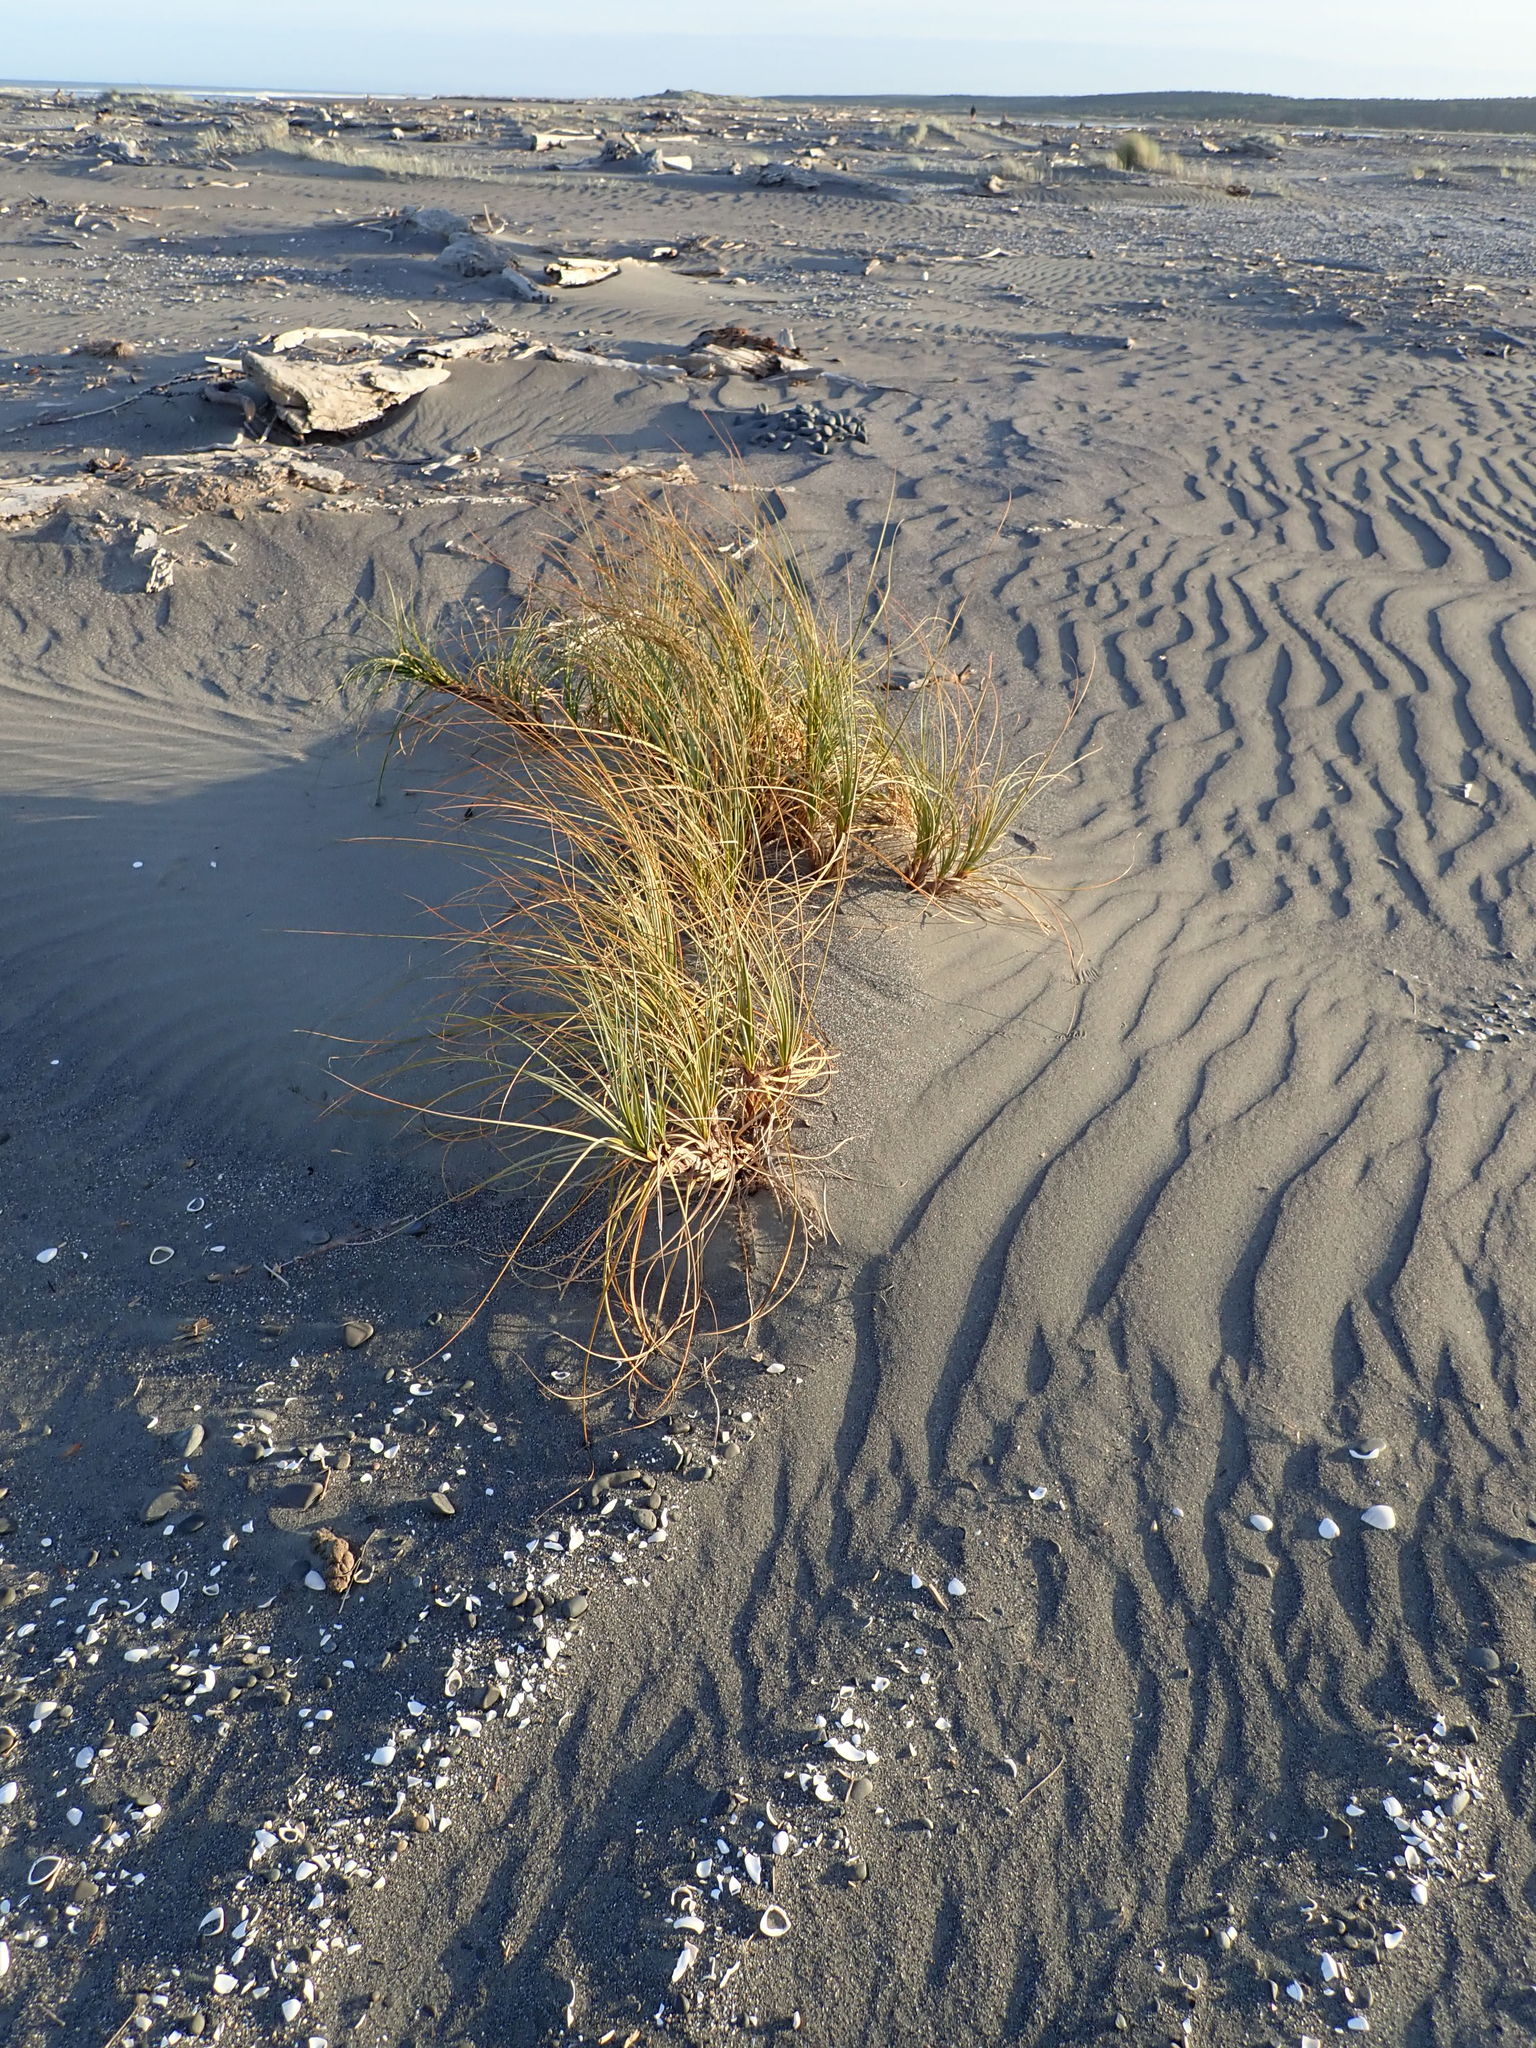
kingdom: Plantae
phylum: Tracheophyta
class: Liliopsida
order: Poales
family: Cyperaceae
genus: Ficinia
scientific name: Ficinia spiralis
